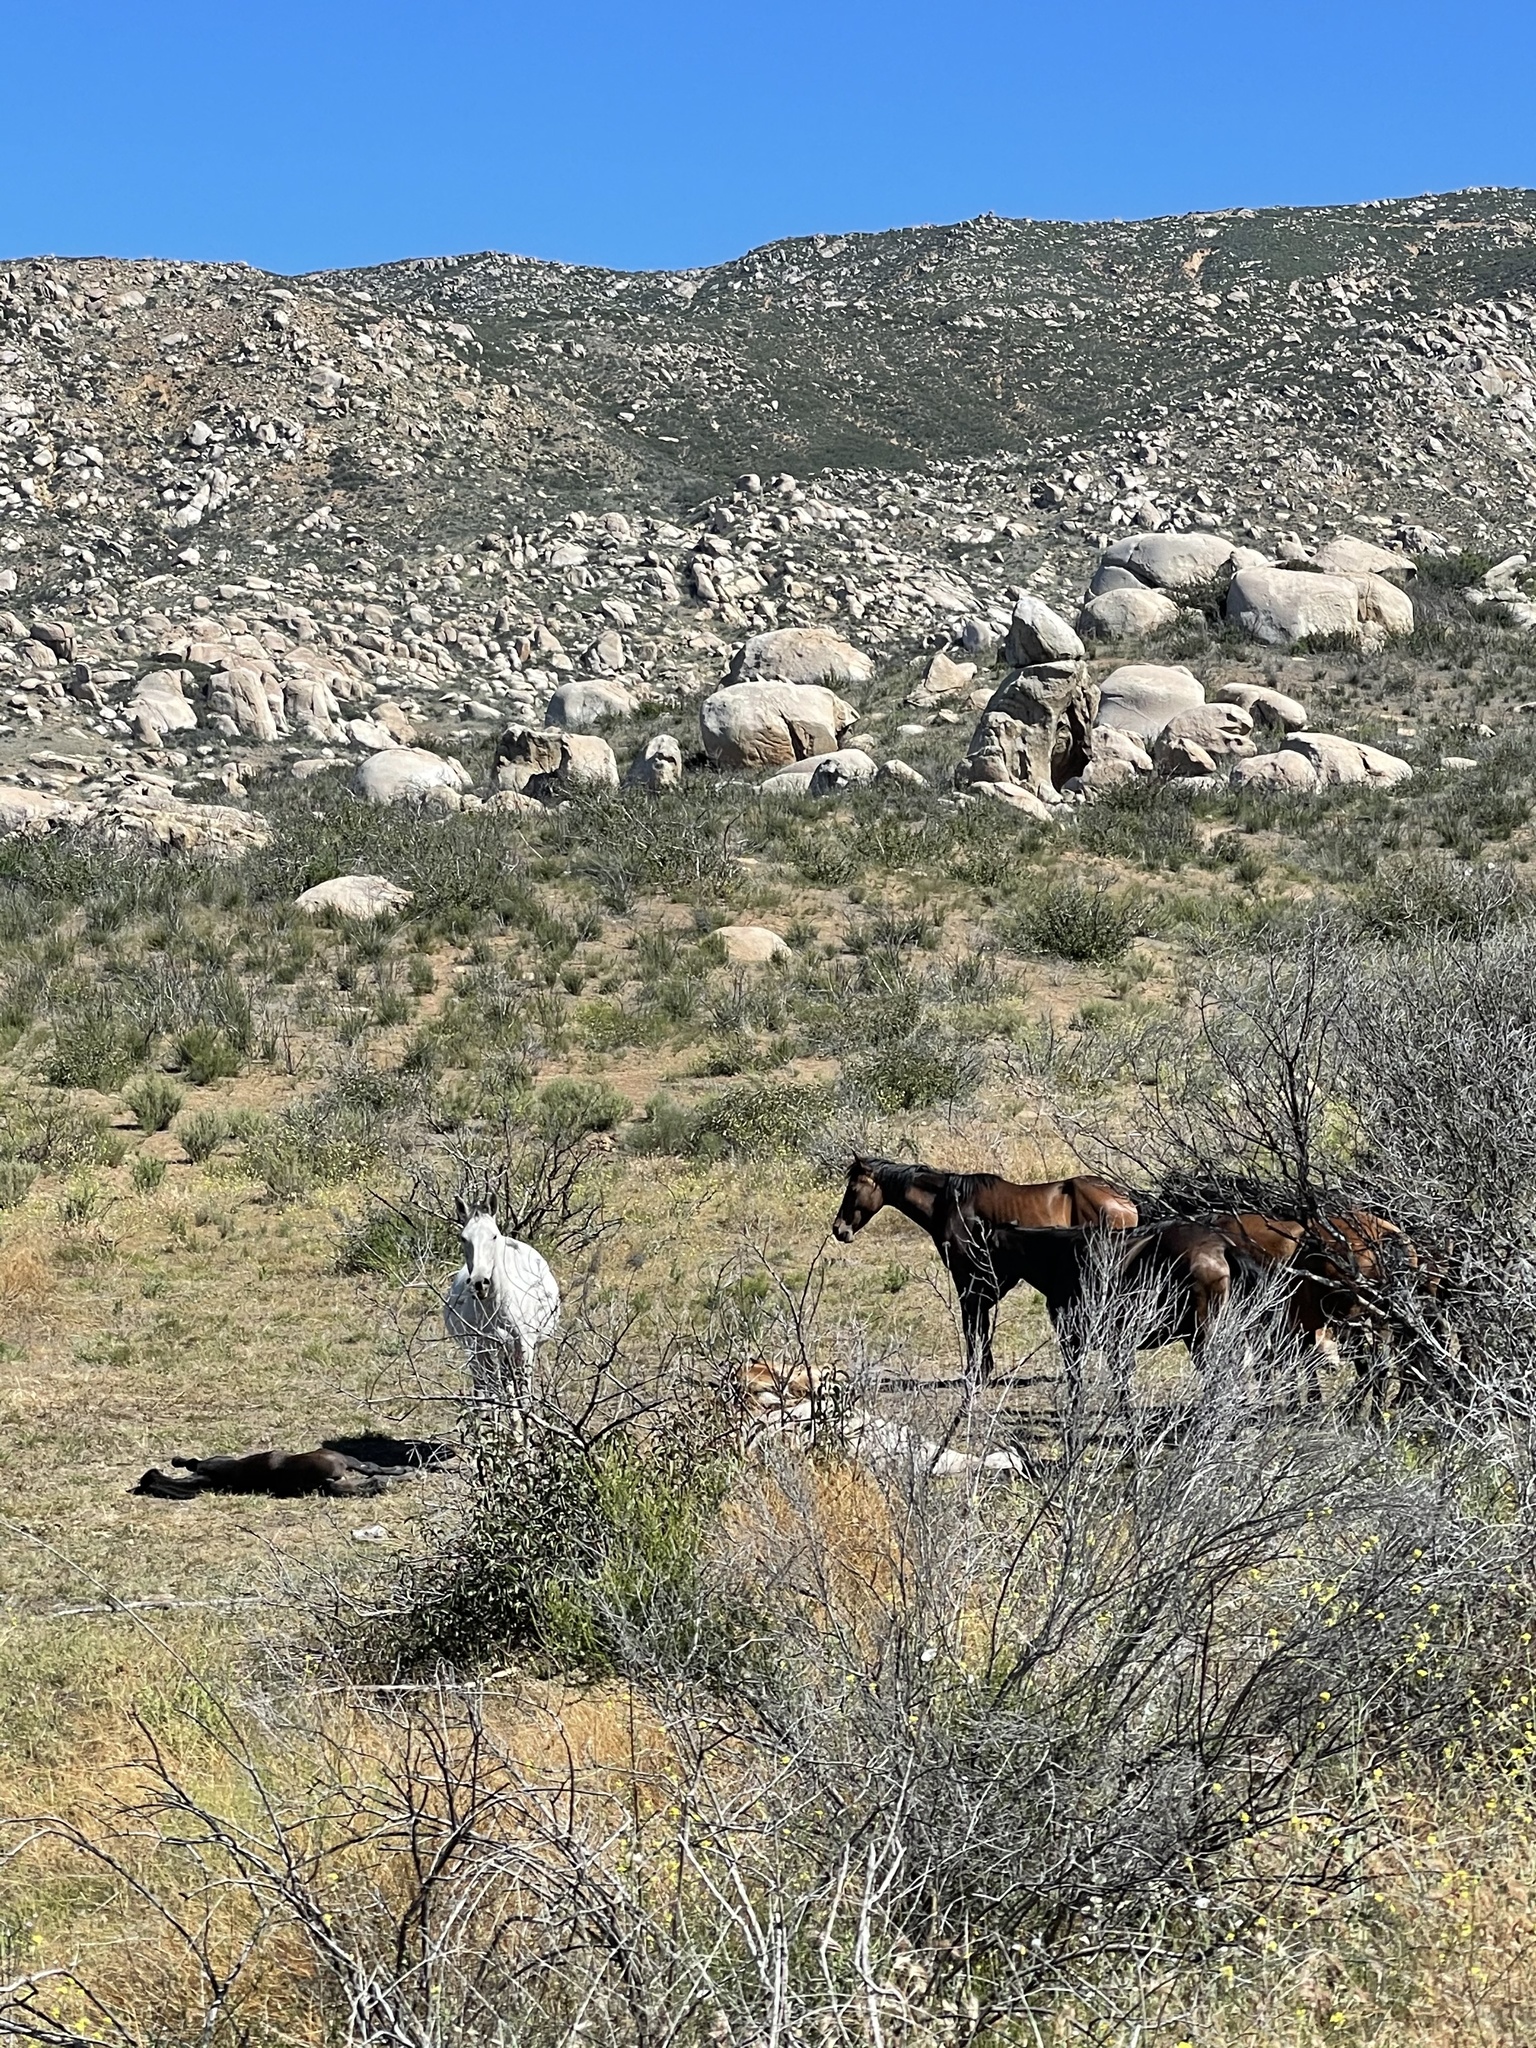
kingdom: Animalia
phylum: Chordata
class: Mammalia
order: Perissodactyla
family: Equidae
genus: Equus
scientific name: Equus caballus
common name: Horse
